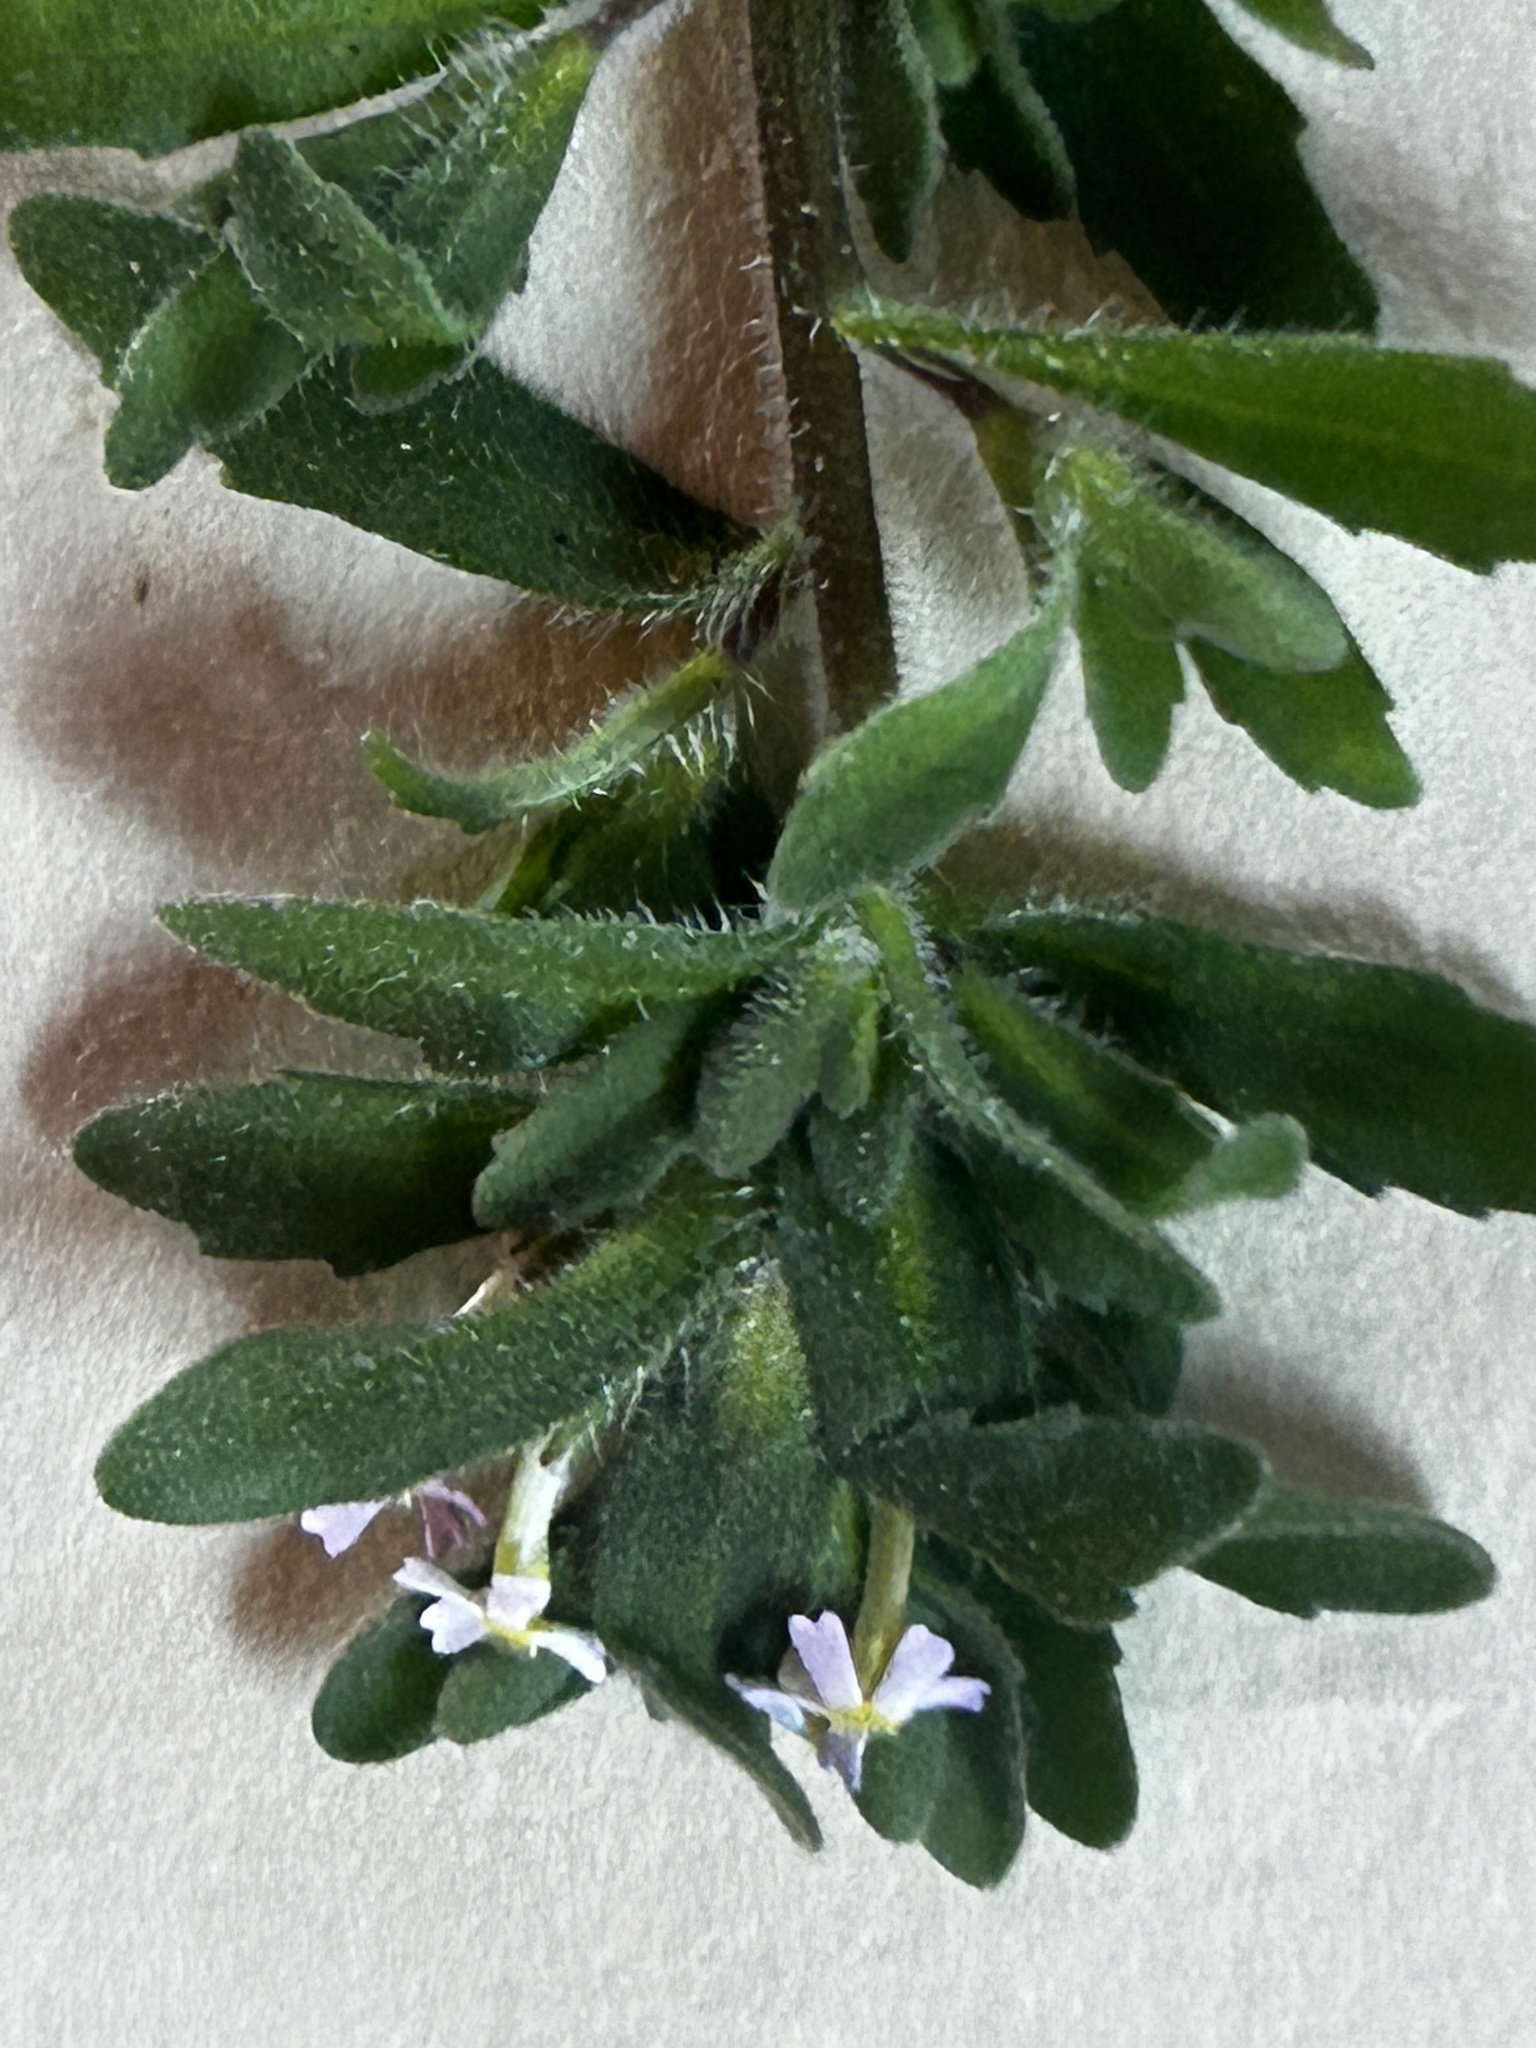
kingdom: Plantae
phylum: Tracheophyta
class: Magnoliopsida
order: Lamiales
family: Scrophulariaceae
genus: Zaluzianskya
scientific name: Zaluzianskya gracilis
